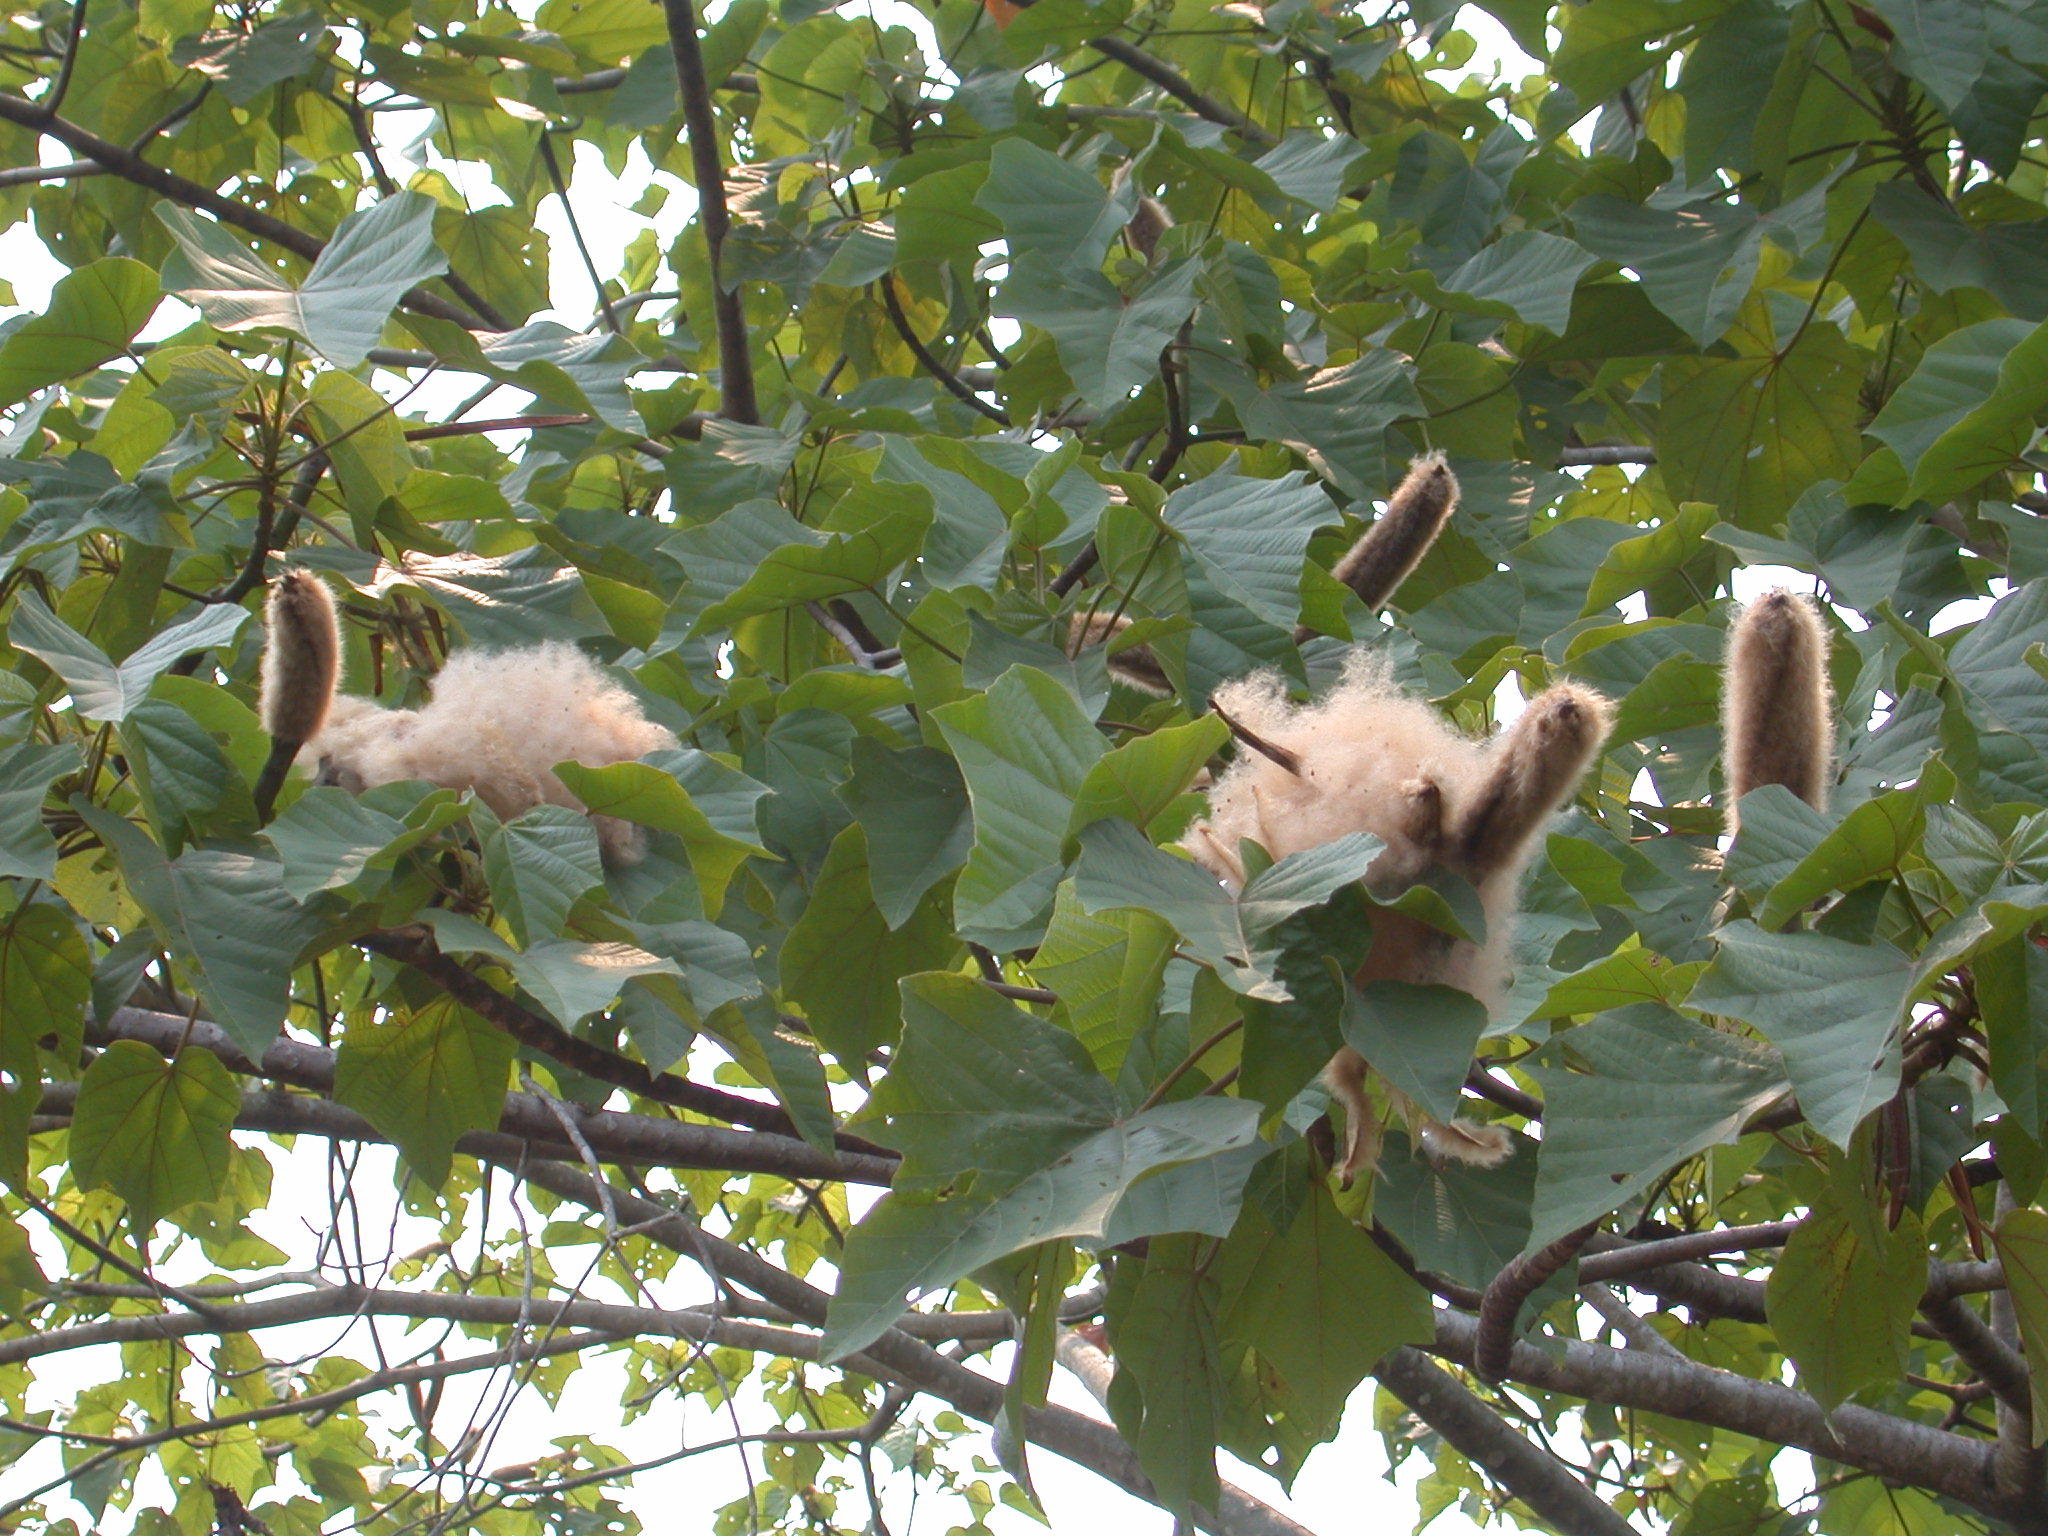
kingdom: Plantae
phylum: Tracheophyta
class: Magnoliopsida
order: Malvales
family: Malvaceae
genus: Ochroma
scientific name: Ochroma pyramidale
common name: Balsa
